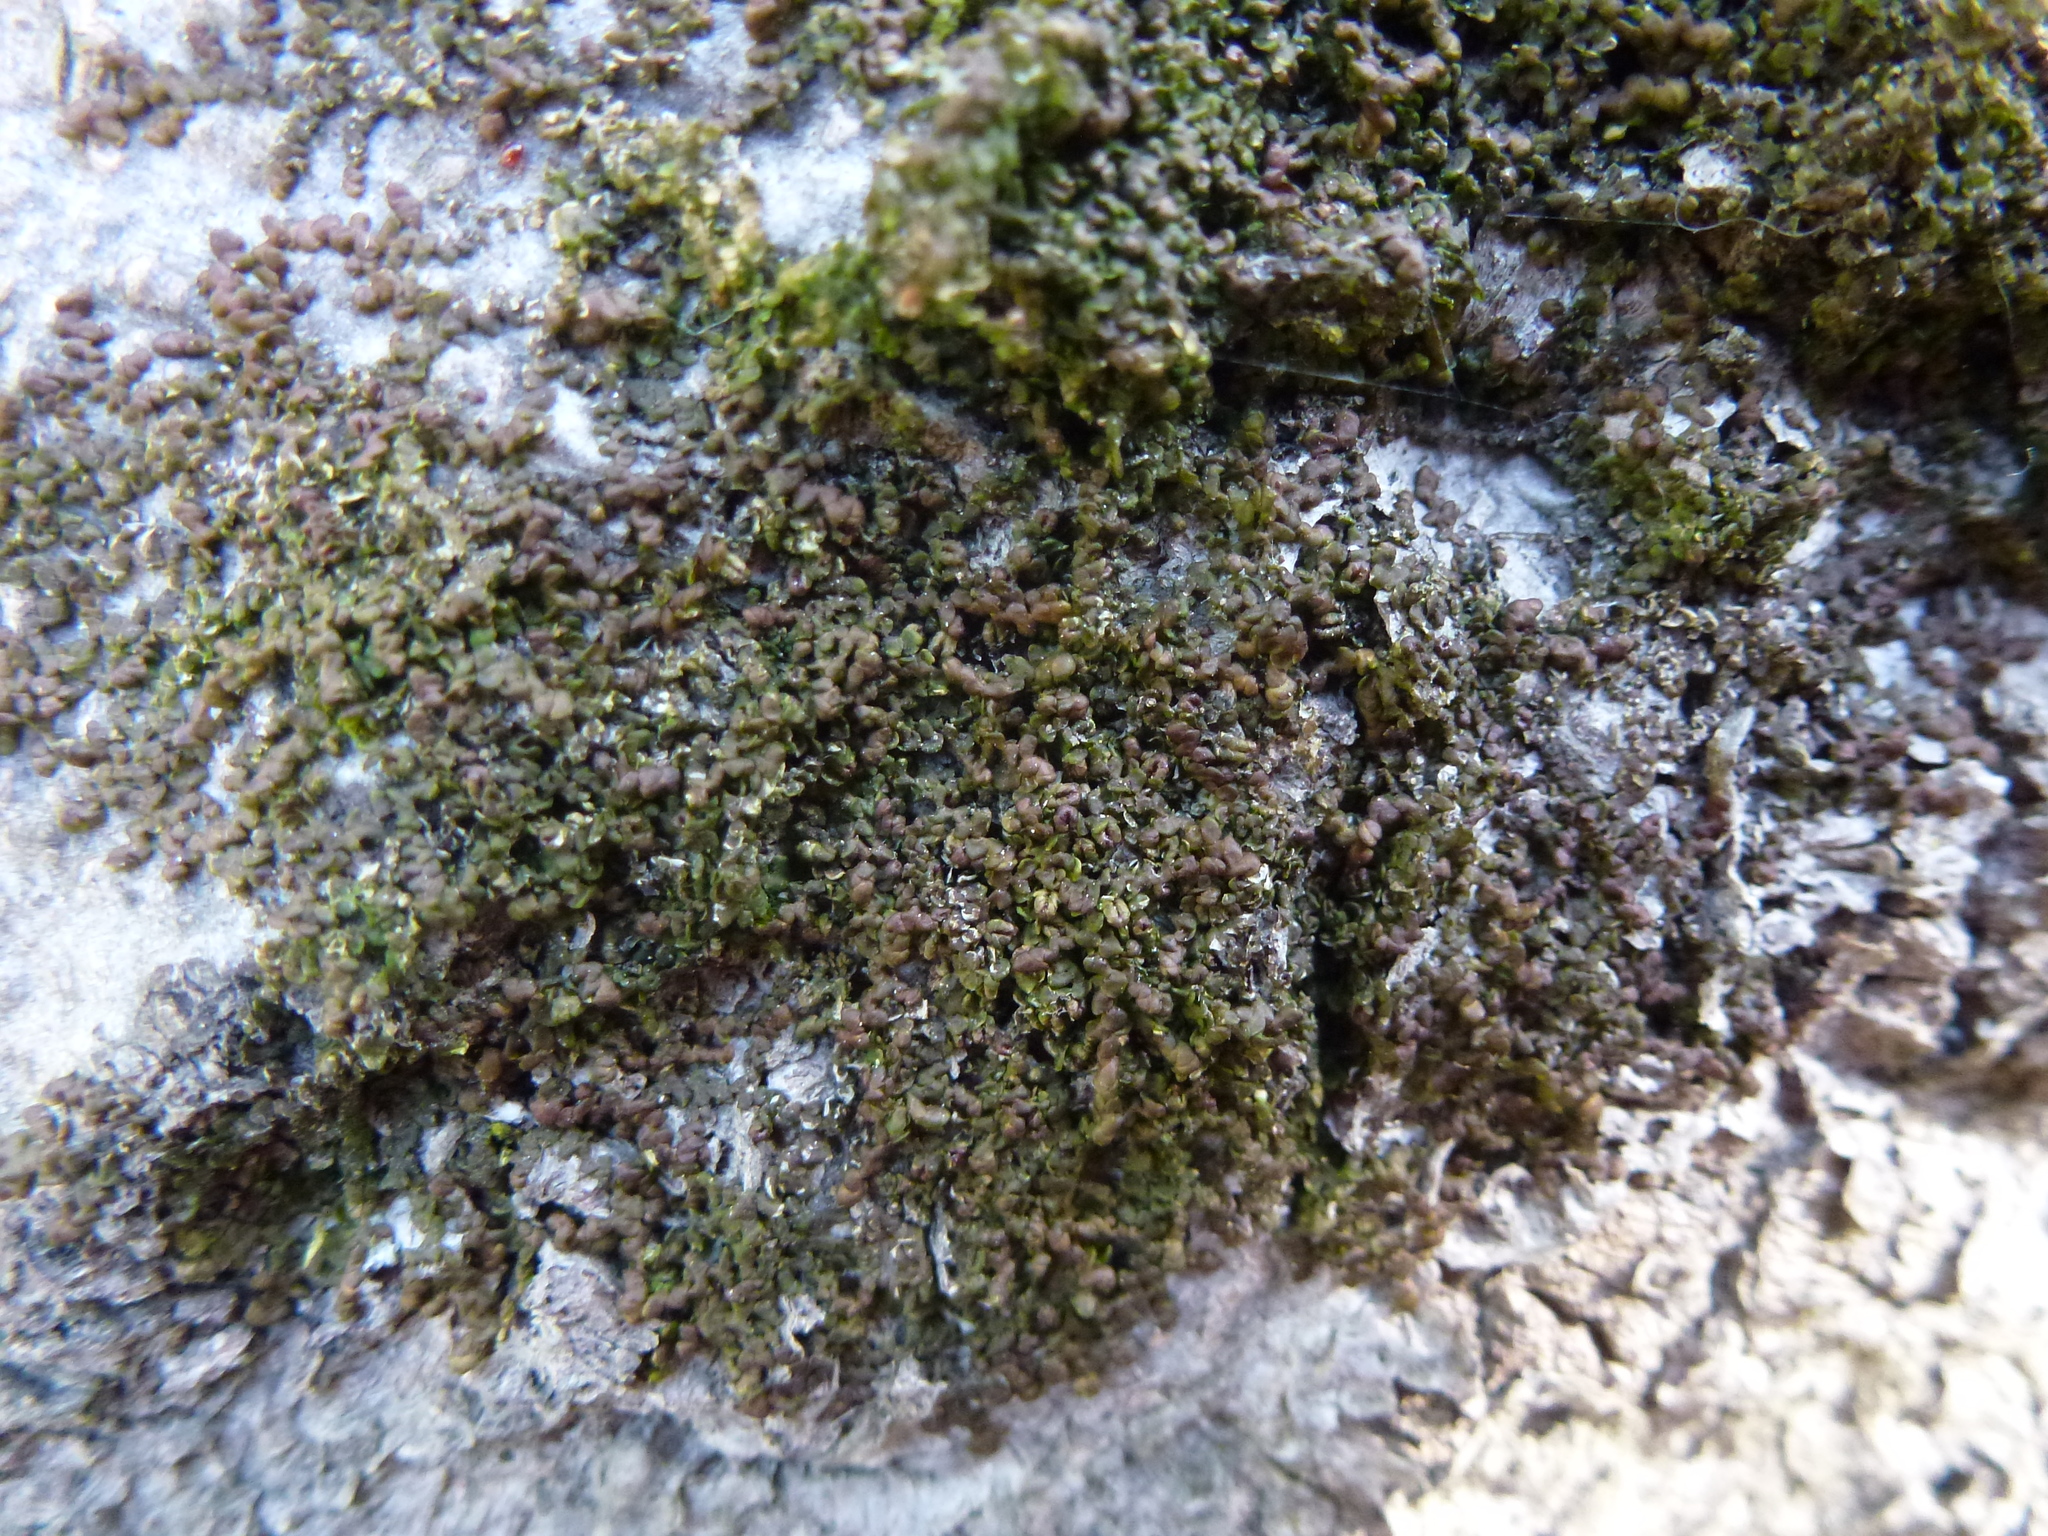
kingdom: Plantae
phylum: Marchantiophyta
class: Jungermanniopsida
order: Porellales
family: Frullaniaceae
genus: Frullania
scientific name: Frullania dilatata
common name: Dilated scalewort
